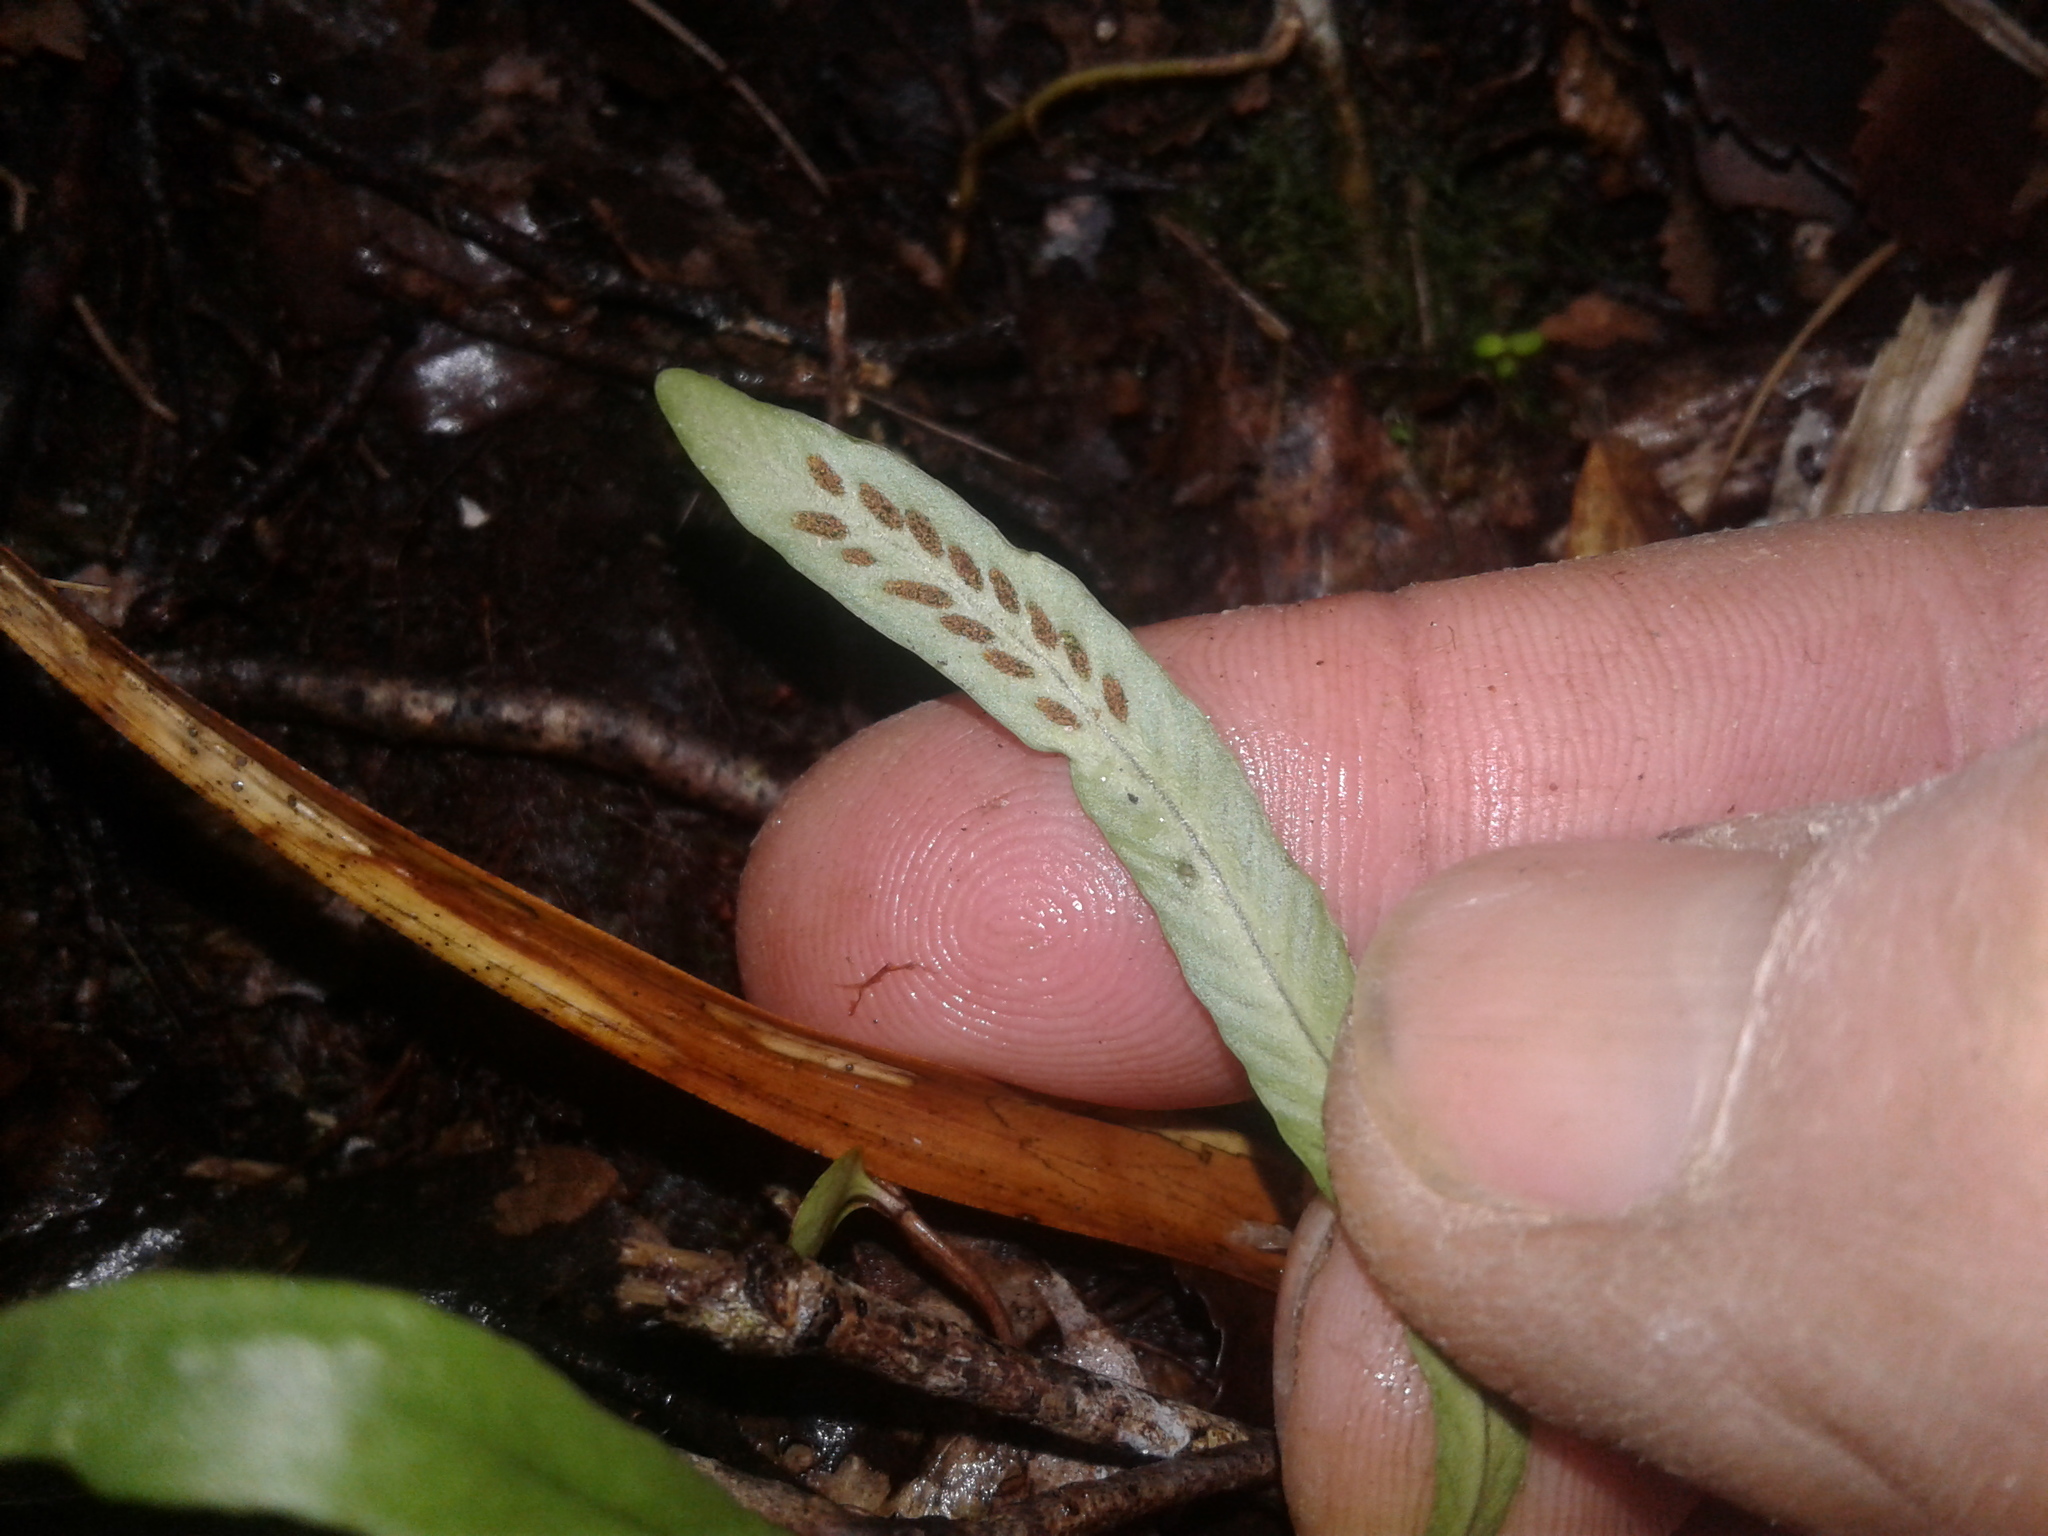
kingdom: Plantae
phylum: Tracheophyta
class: Polypodiopsida
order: Polypodiales
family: Polypodiaceae
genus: Notogrammitis
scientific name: Notogrammitis billardierei
